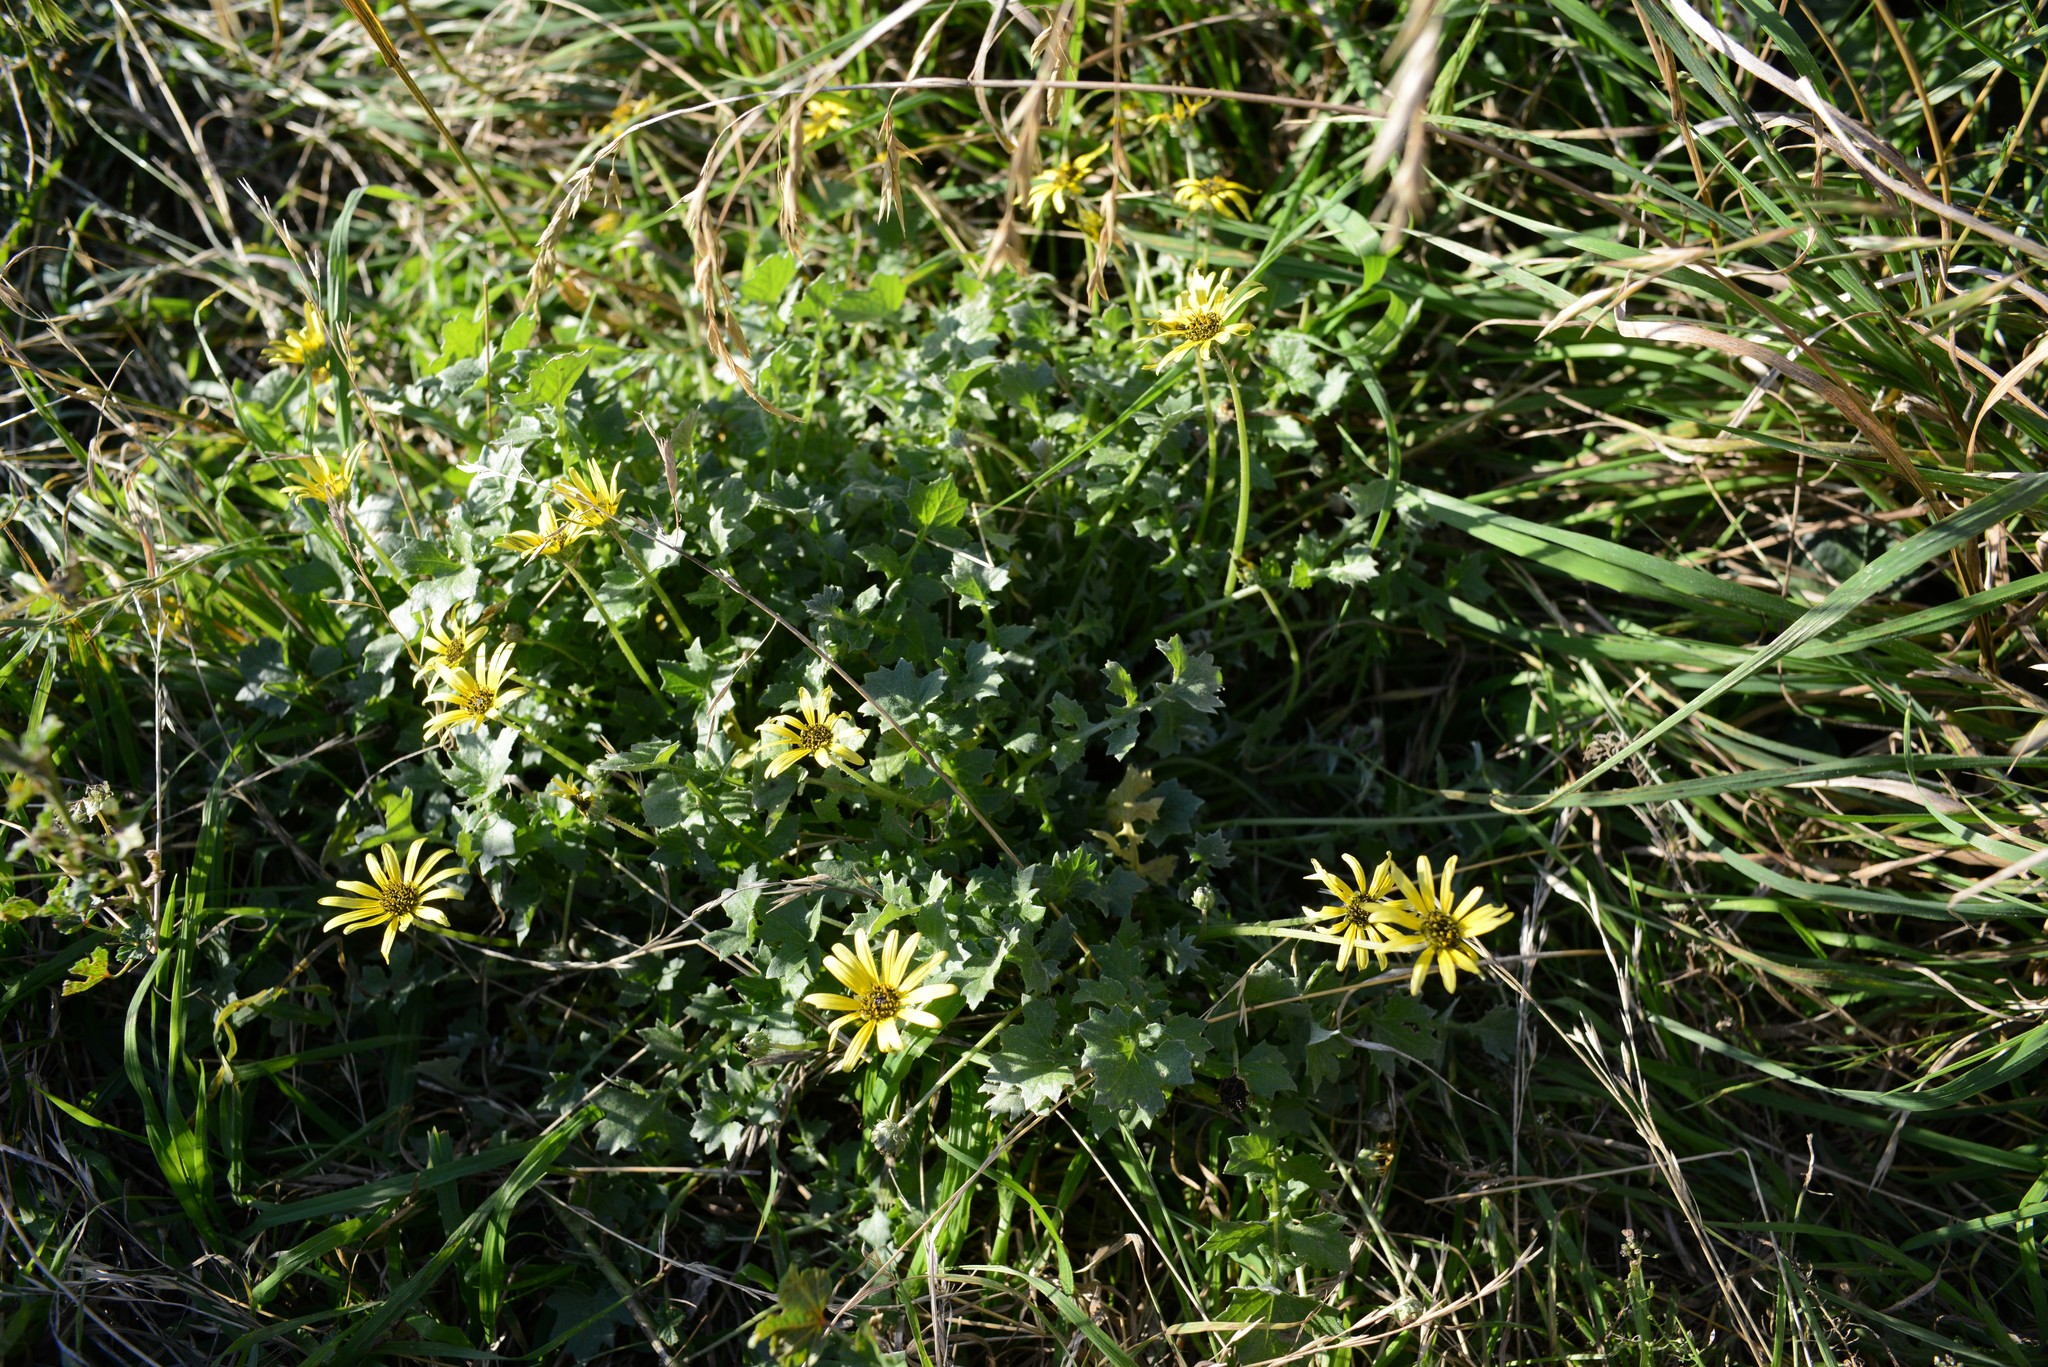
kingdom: Plantae
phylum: Tracheophyta
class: Magnoliopsida
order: Asterales
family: Asteraceae
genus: Arctotheca
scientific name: Arctotheca calendula
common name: Capeweed
